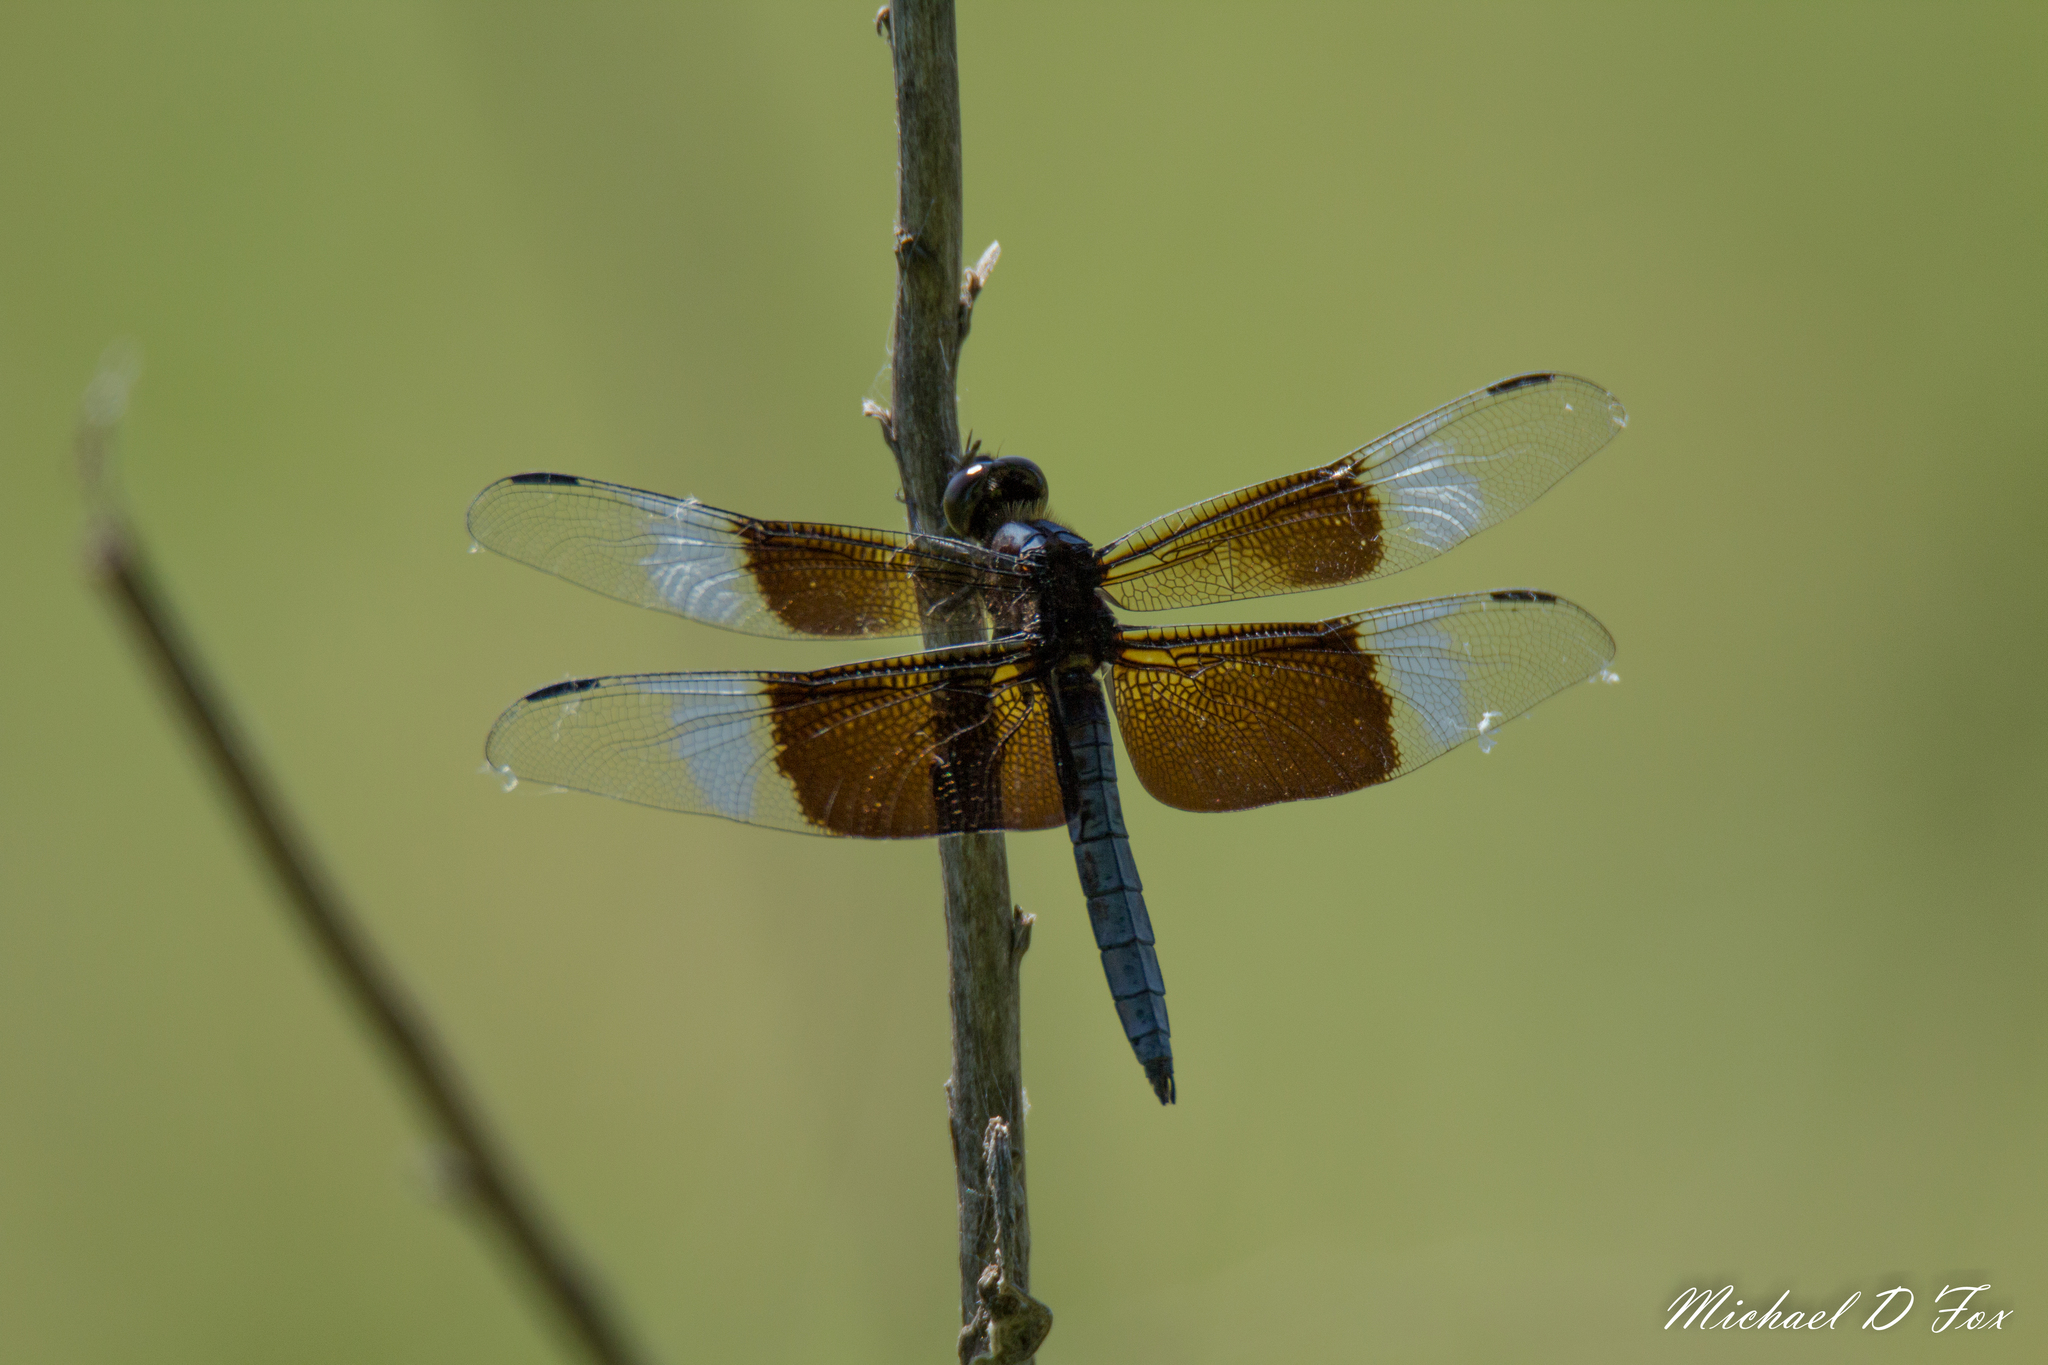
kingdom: Animalia
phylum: Arthropoda
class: Insecta
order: Odonata
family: Libellulidae
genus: Libellula
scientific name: Libellula luctuosa
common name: Widow skimmer
